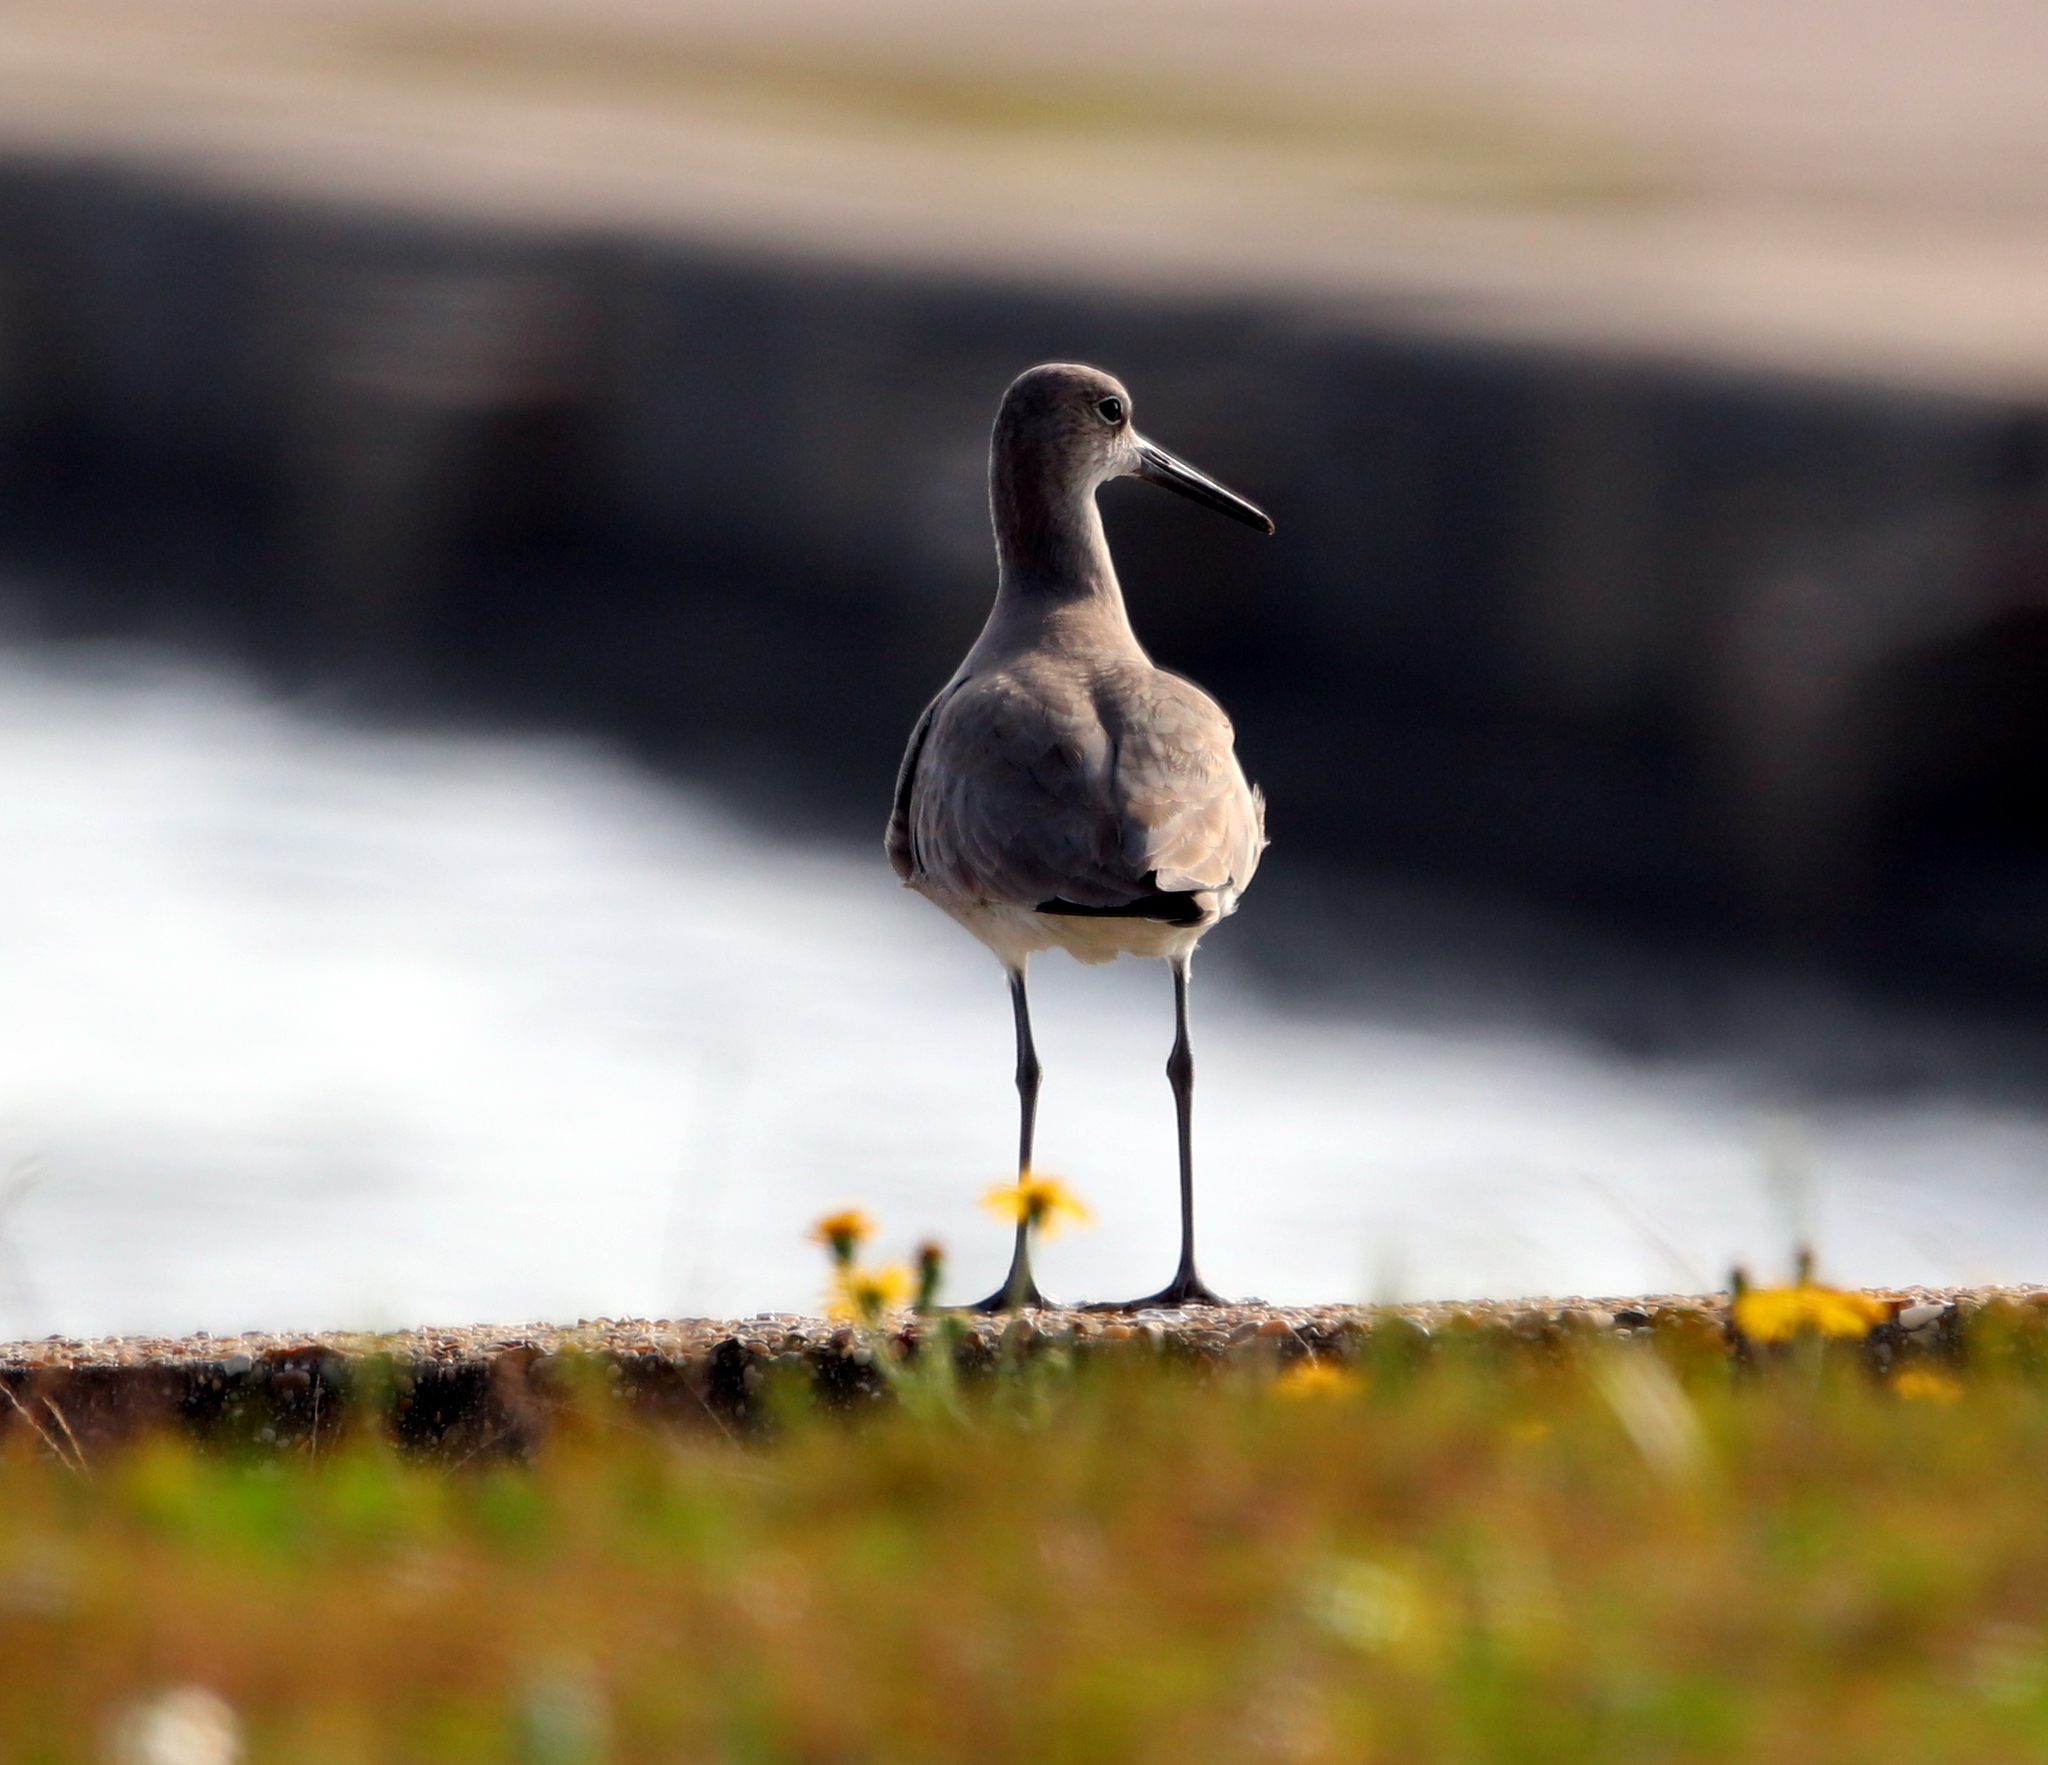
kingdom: Animalia
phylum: Chordata
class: Aves
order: Charadriiformes
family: Scolopacidae
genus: Tringa
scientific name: Tringa semipalmata
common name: Willet
